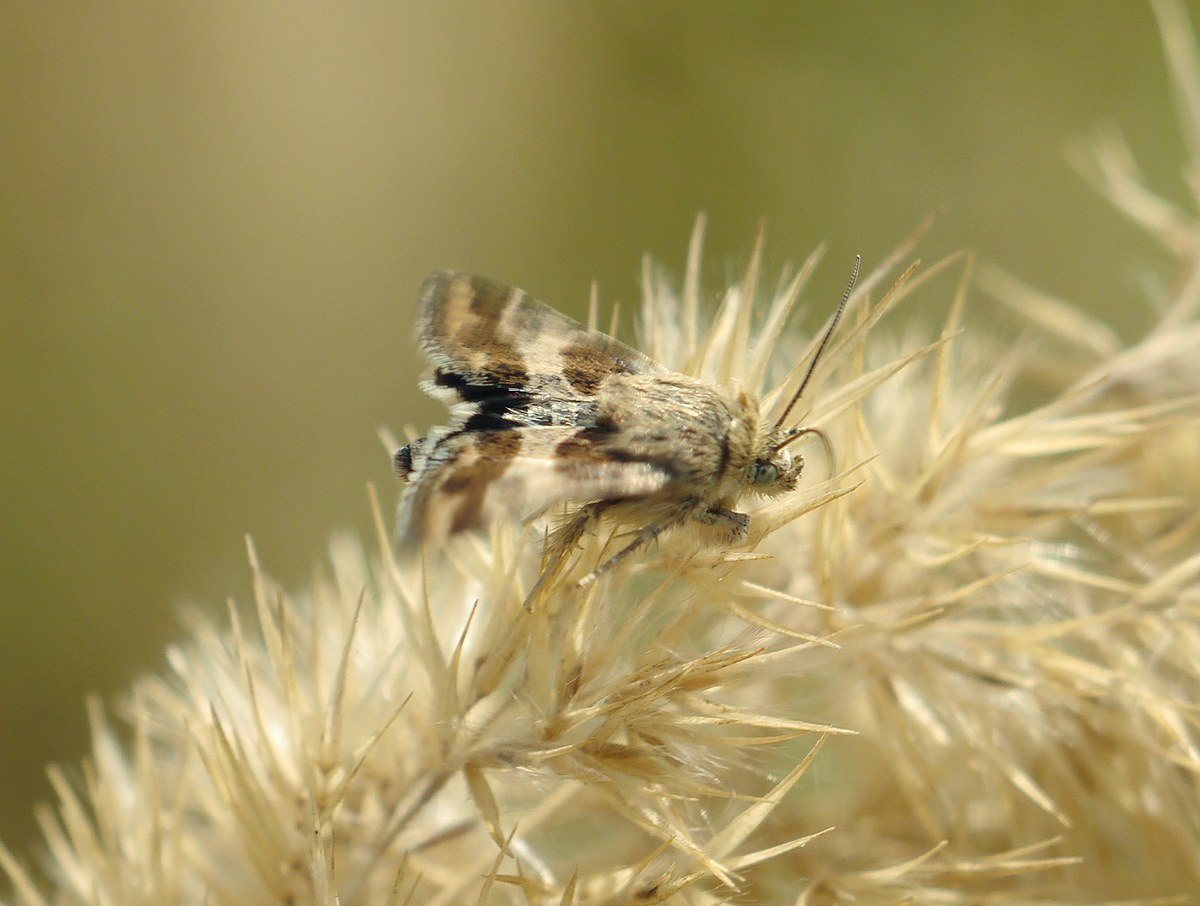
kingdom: Animalia
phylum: Arthropoda
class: Insecta
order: Lepidoptera
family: Noctuidae
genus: Schinia
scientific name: Schinia cognata
